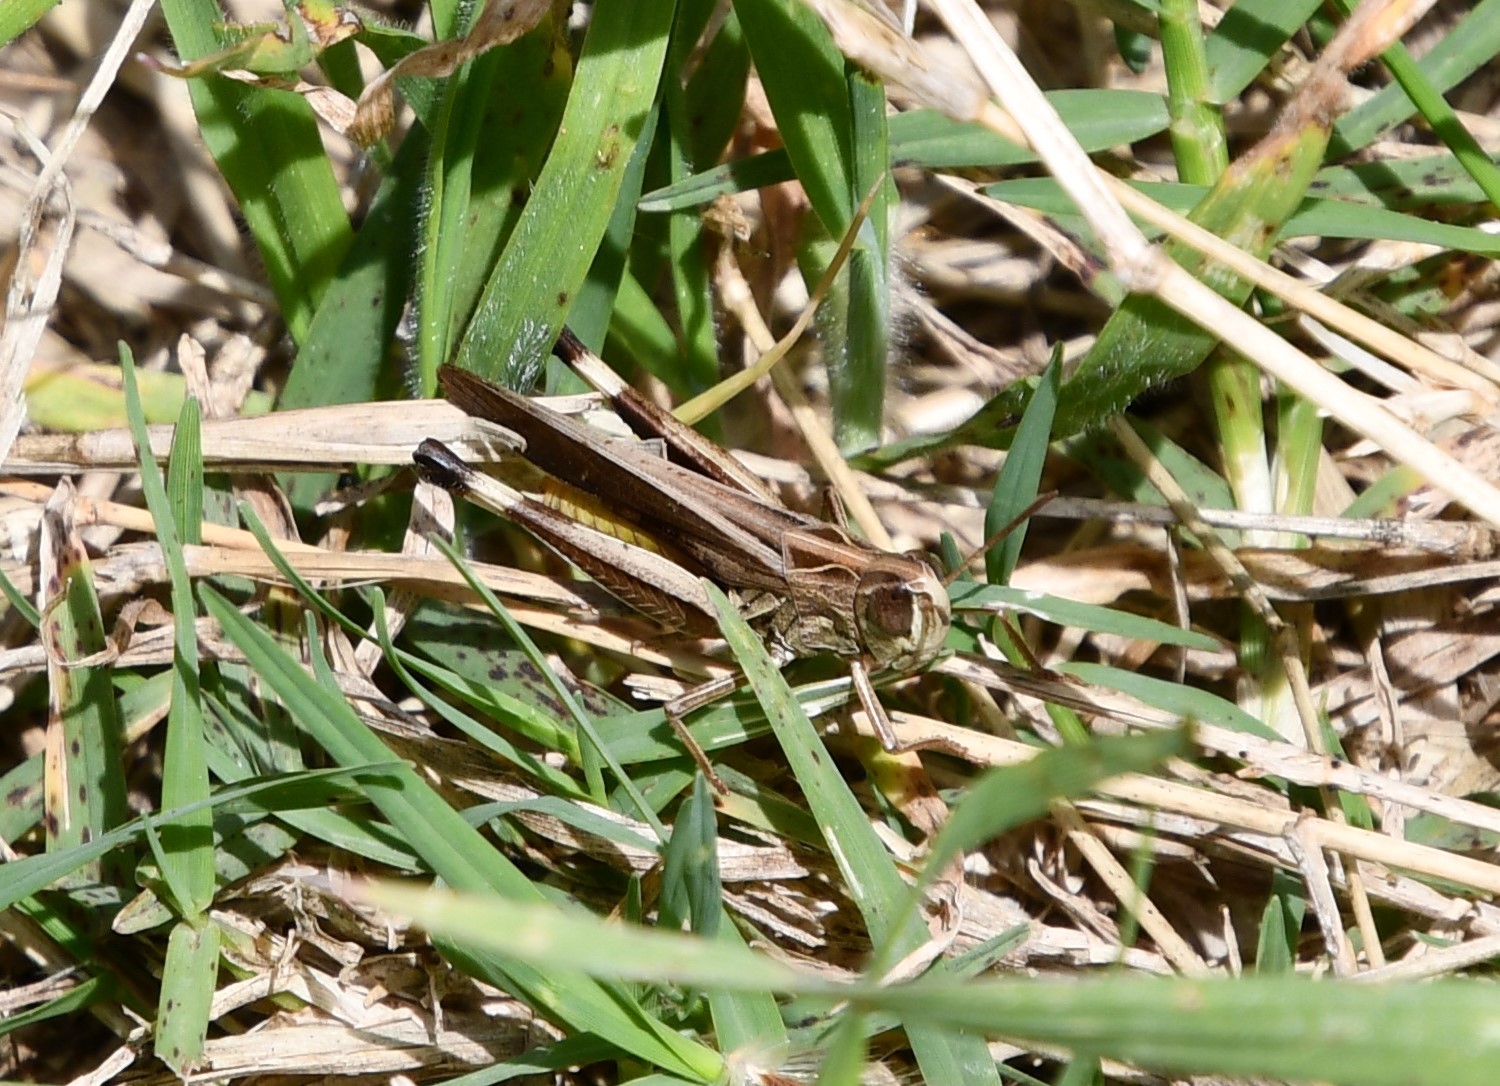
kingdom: Animalia
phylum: Arthropoda
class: Insecta
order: Orthoptera
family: Acrididae
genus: Caledia
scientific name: Caledia captiva
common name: Caledia
